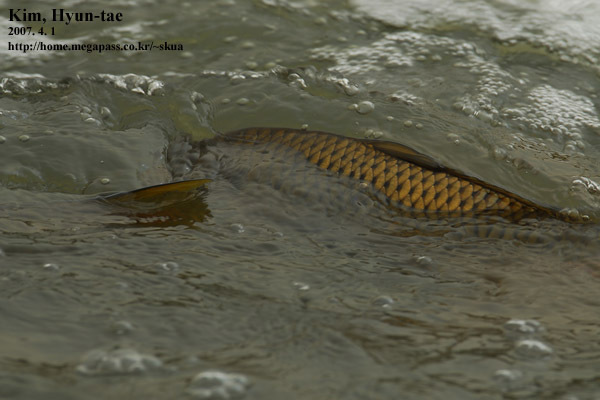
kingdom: Animalia
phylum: Chordata
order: Cypriniformes
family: Cyprinidae
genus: Cyprinus
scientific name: Cyprinus rubrofuscus
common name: Koi
